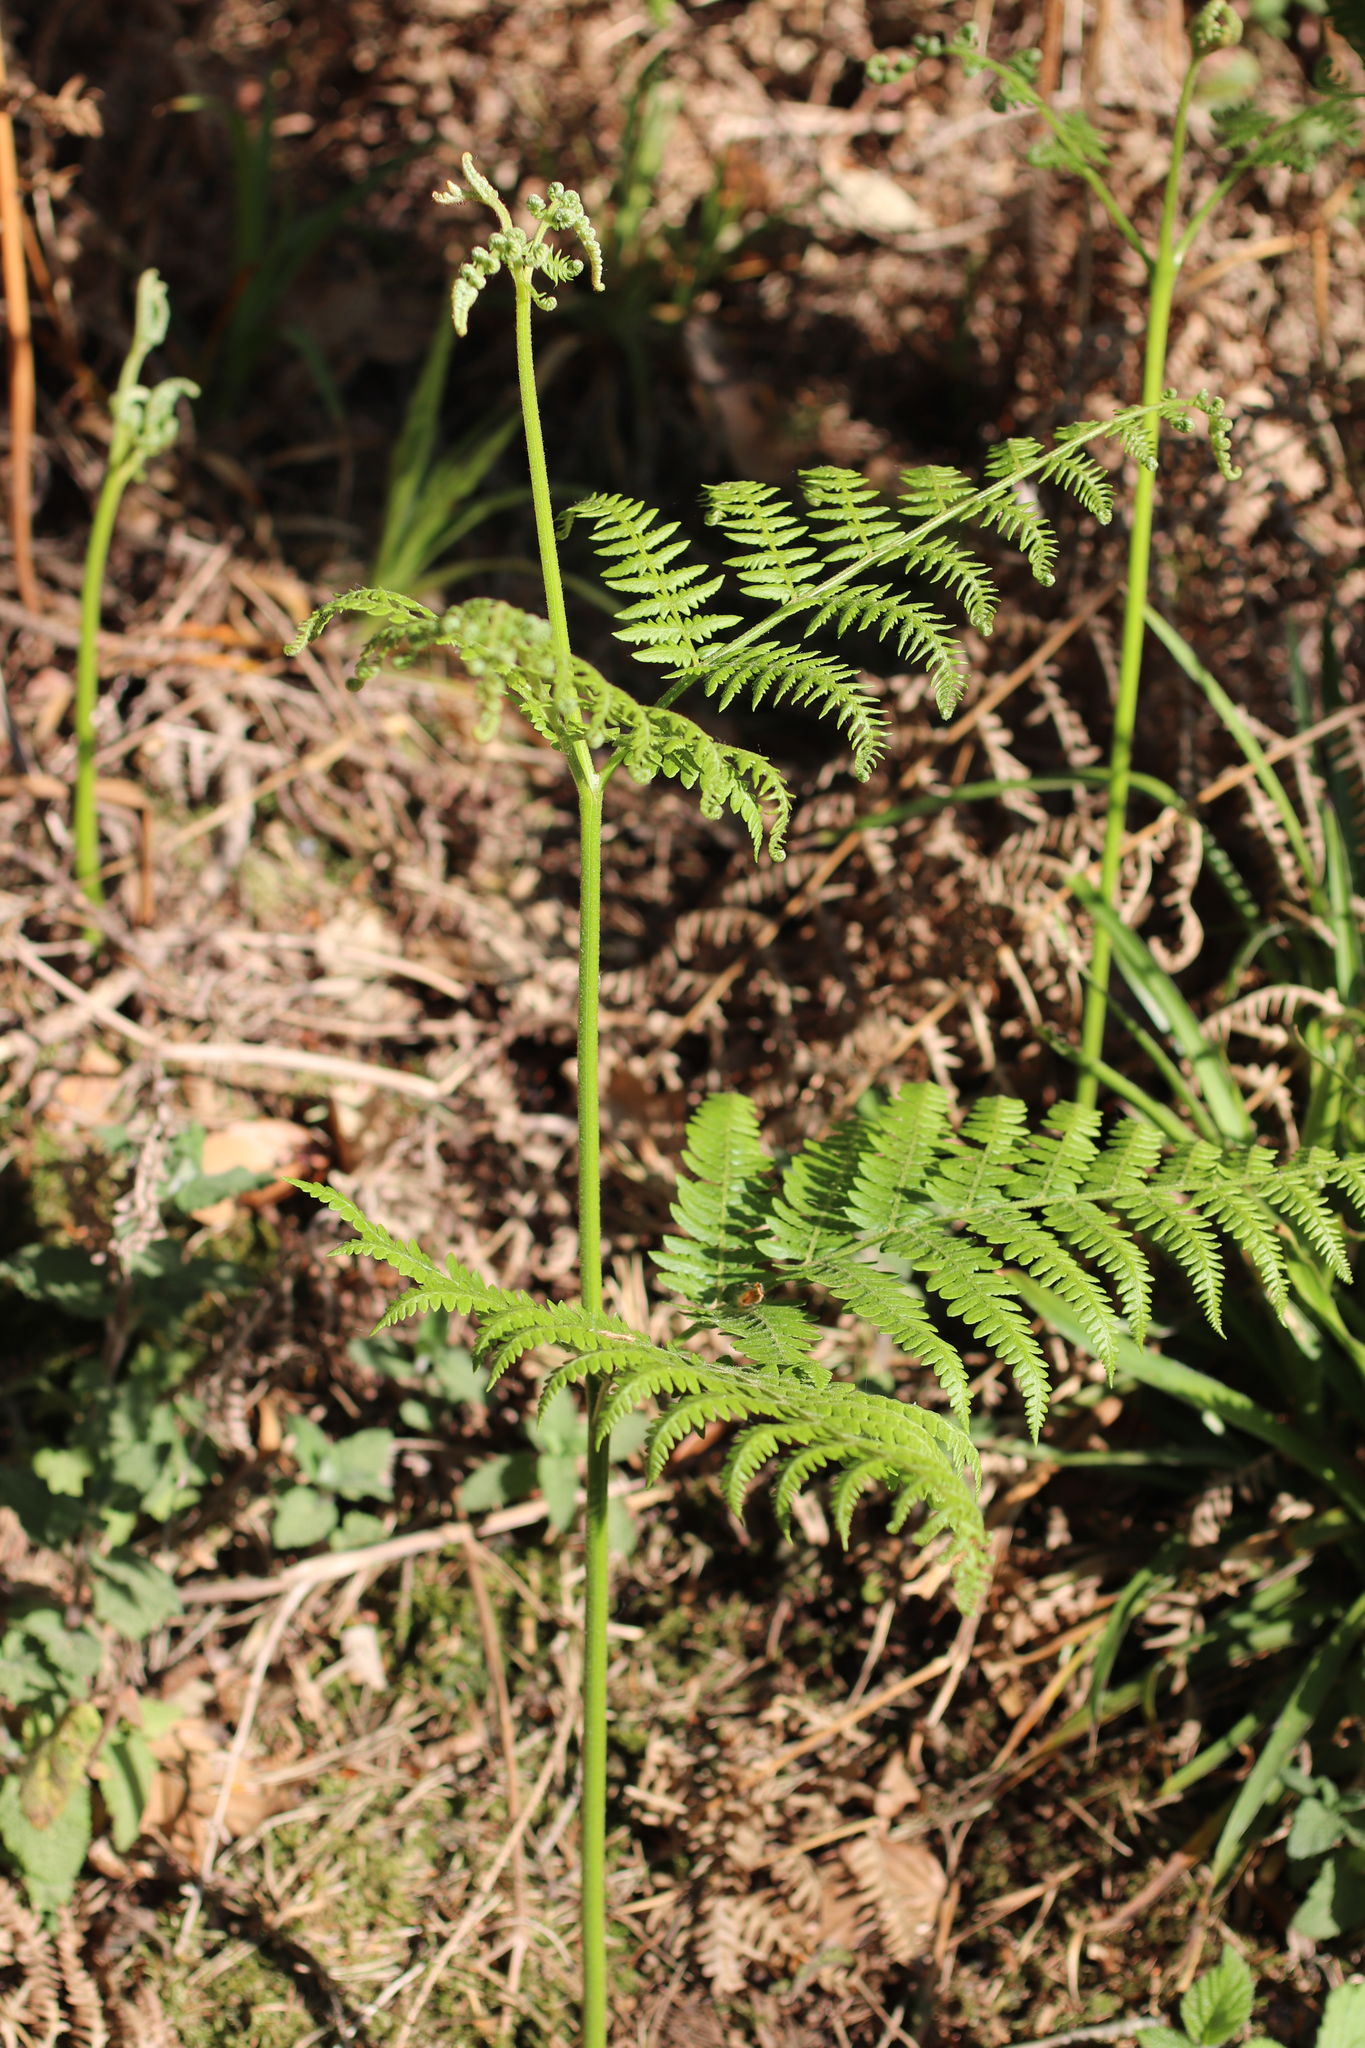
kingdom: Plantae
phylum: Tracheophyta
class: Polypodiopsida
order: Polypodiales
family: Dennstaedtiaceae
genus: Pteridium
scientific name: Pteridium aquilinum
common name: Bracken
